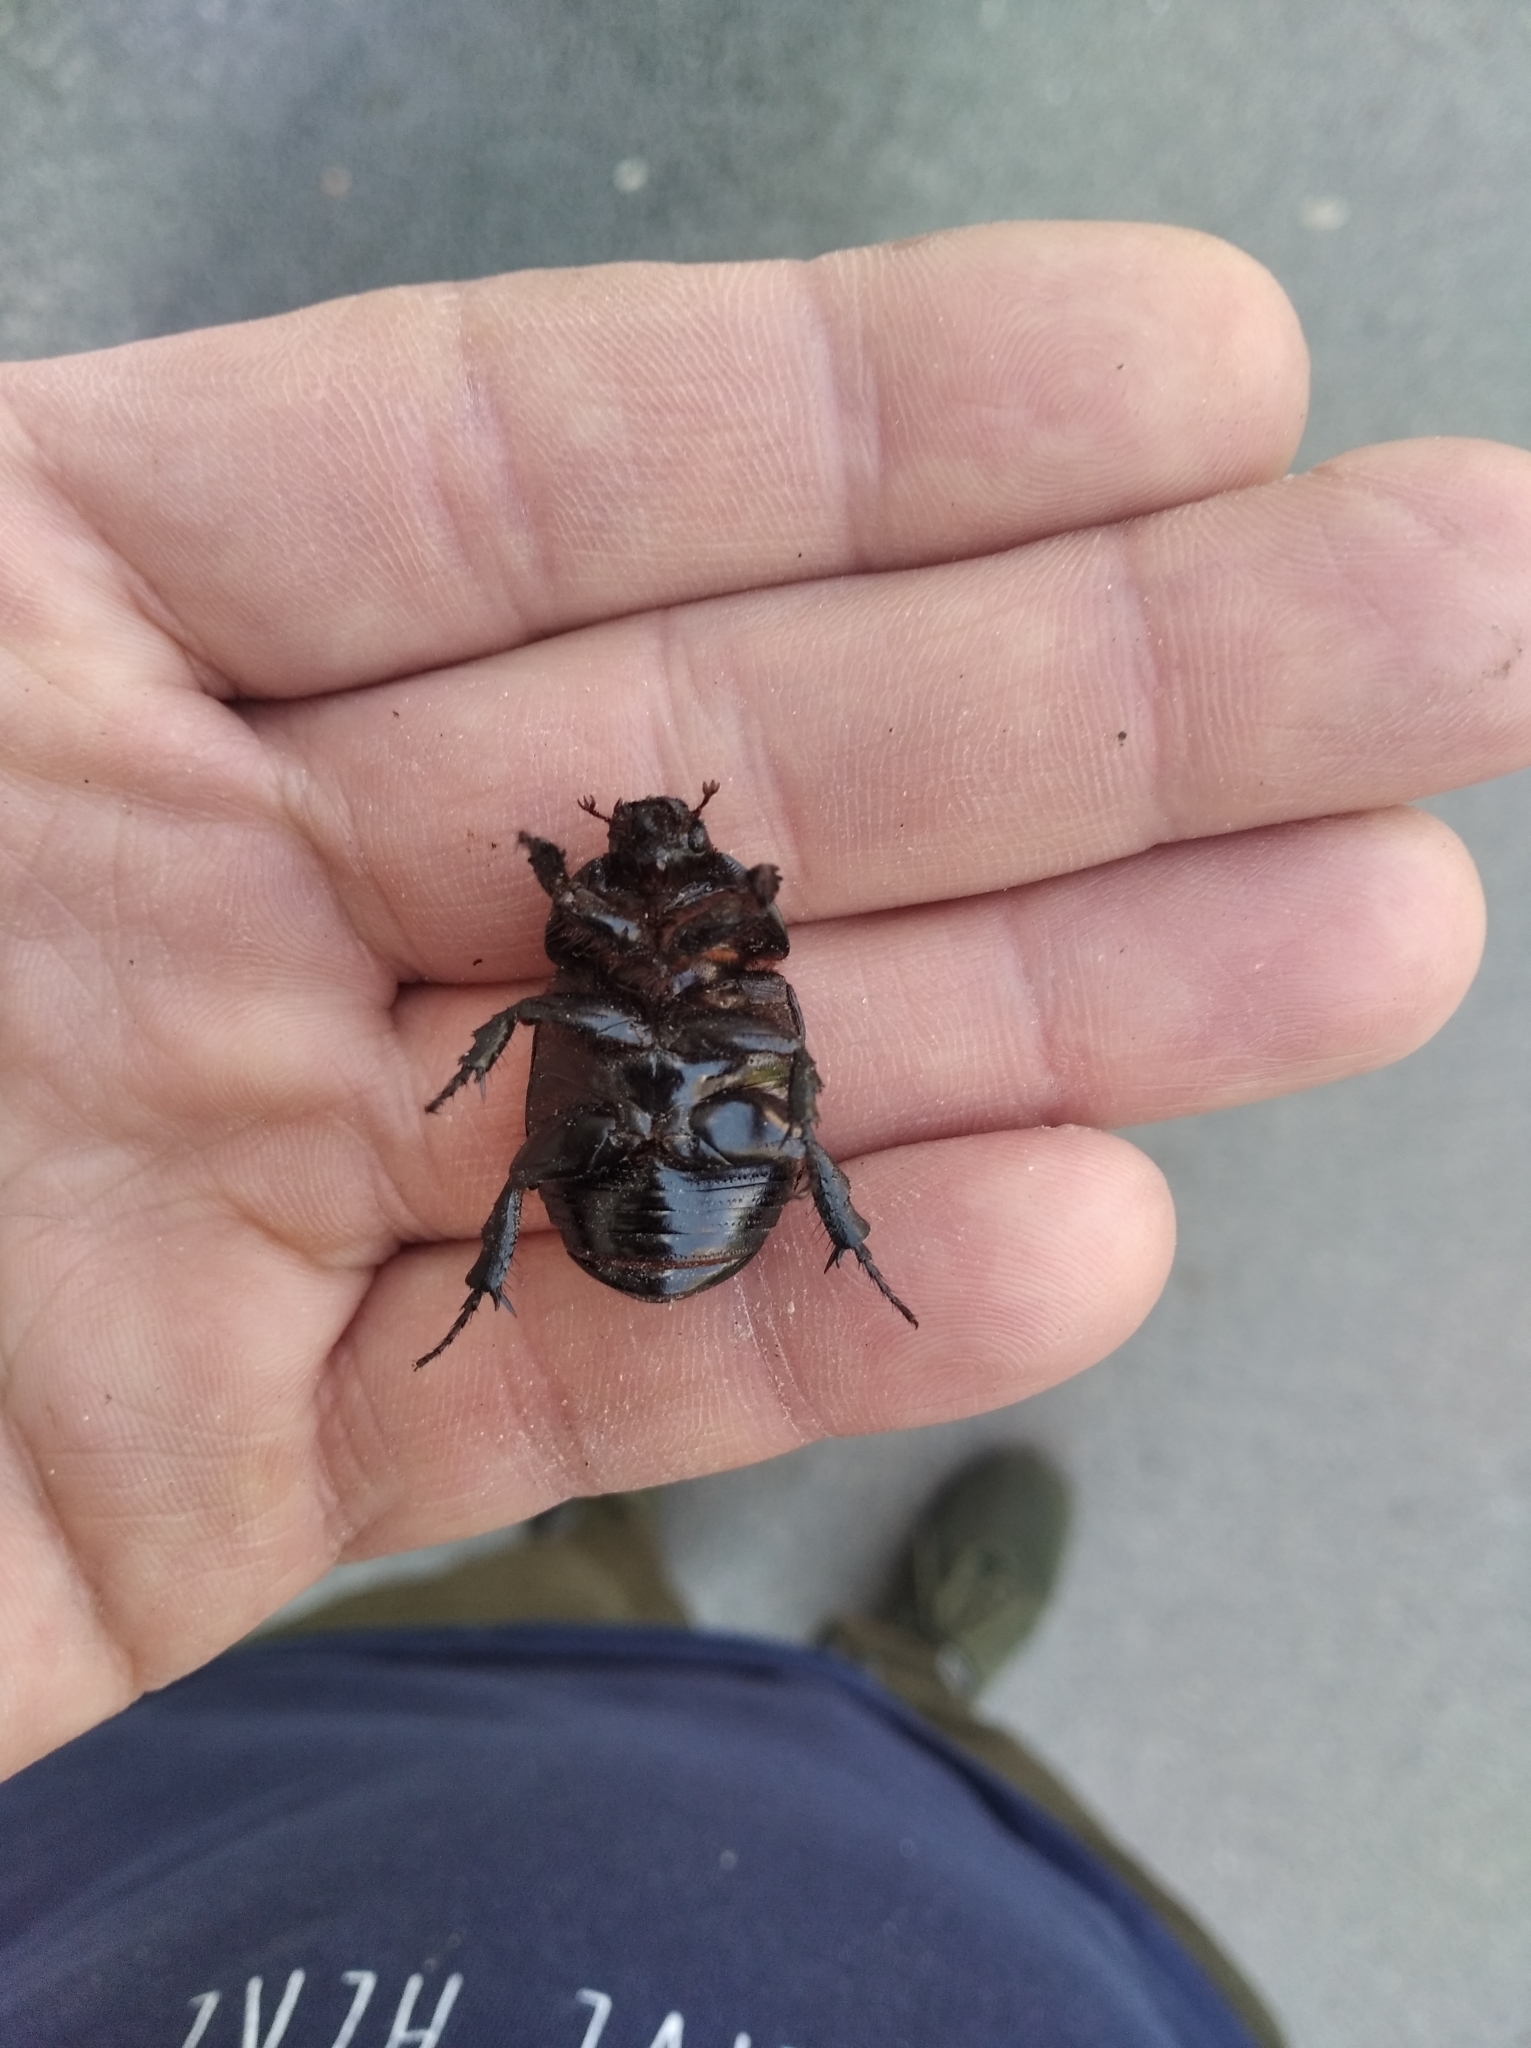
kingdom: Animalia
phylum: Arthropoda
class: Insecta
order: Coleoptera
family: Scarabaeidae
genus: Pentodon
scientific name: Pentodon idiota
